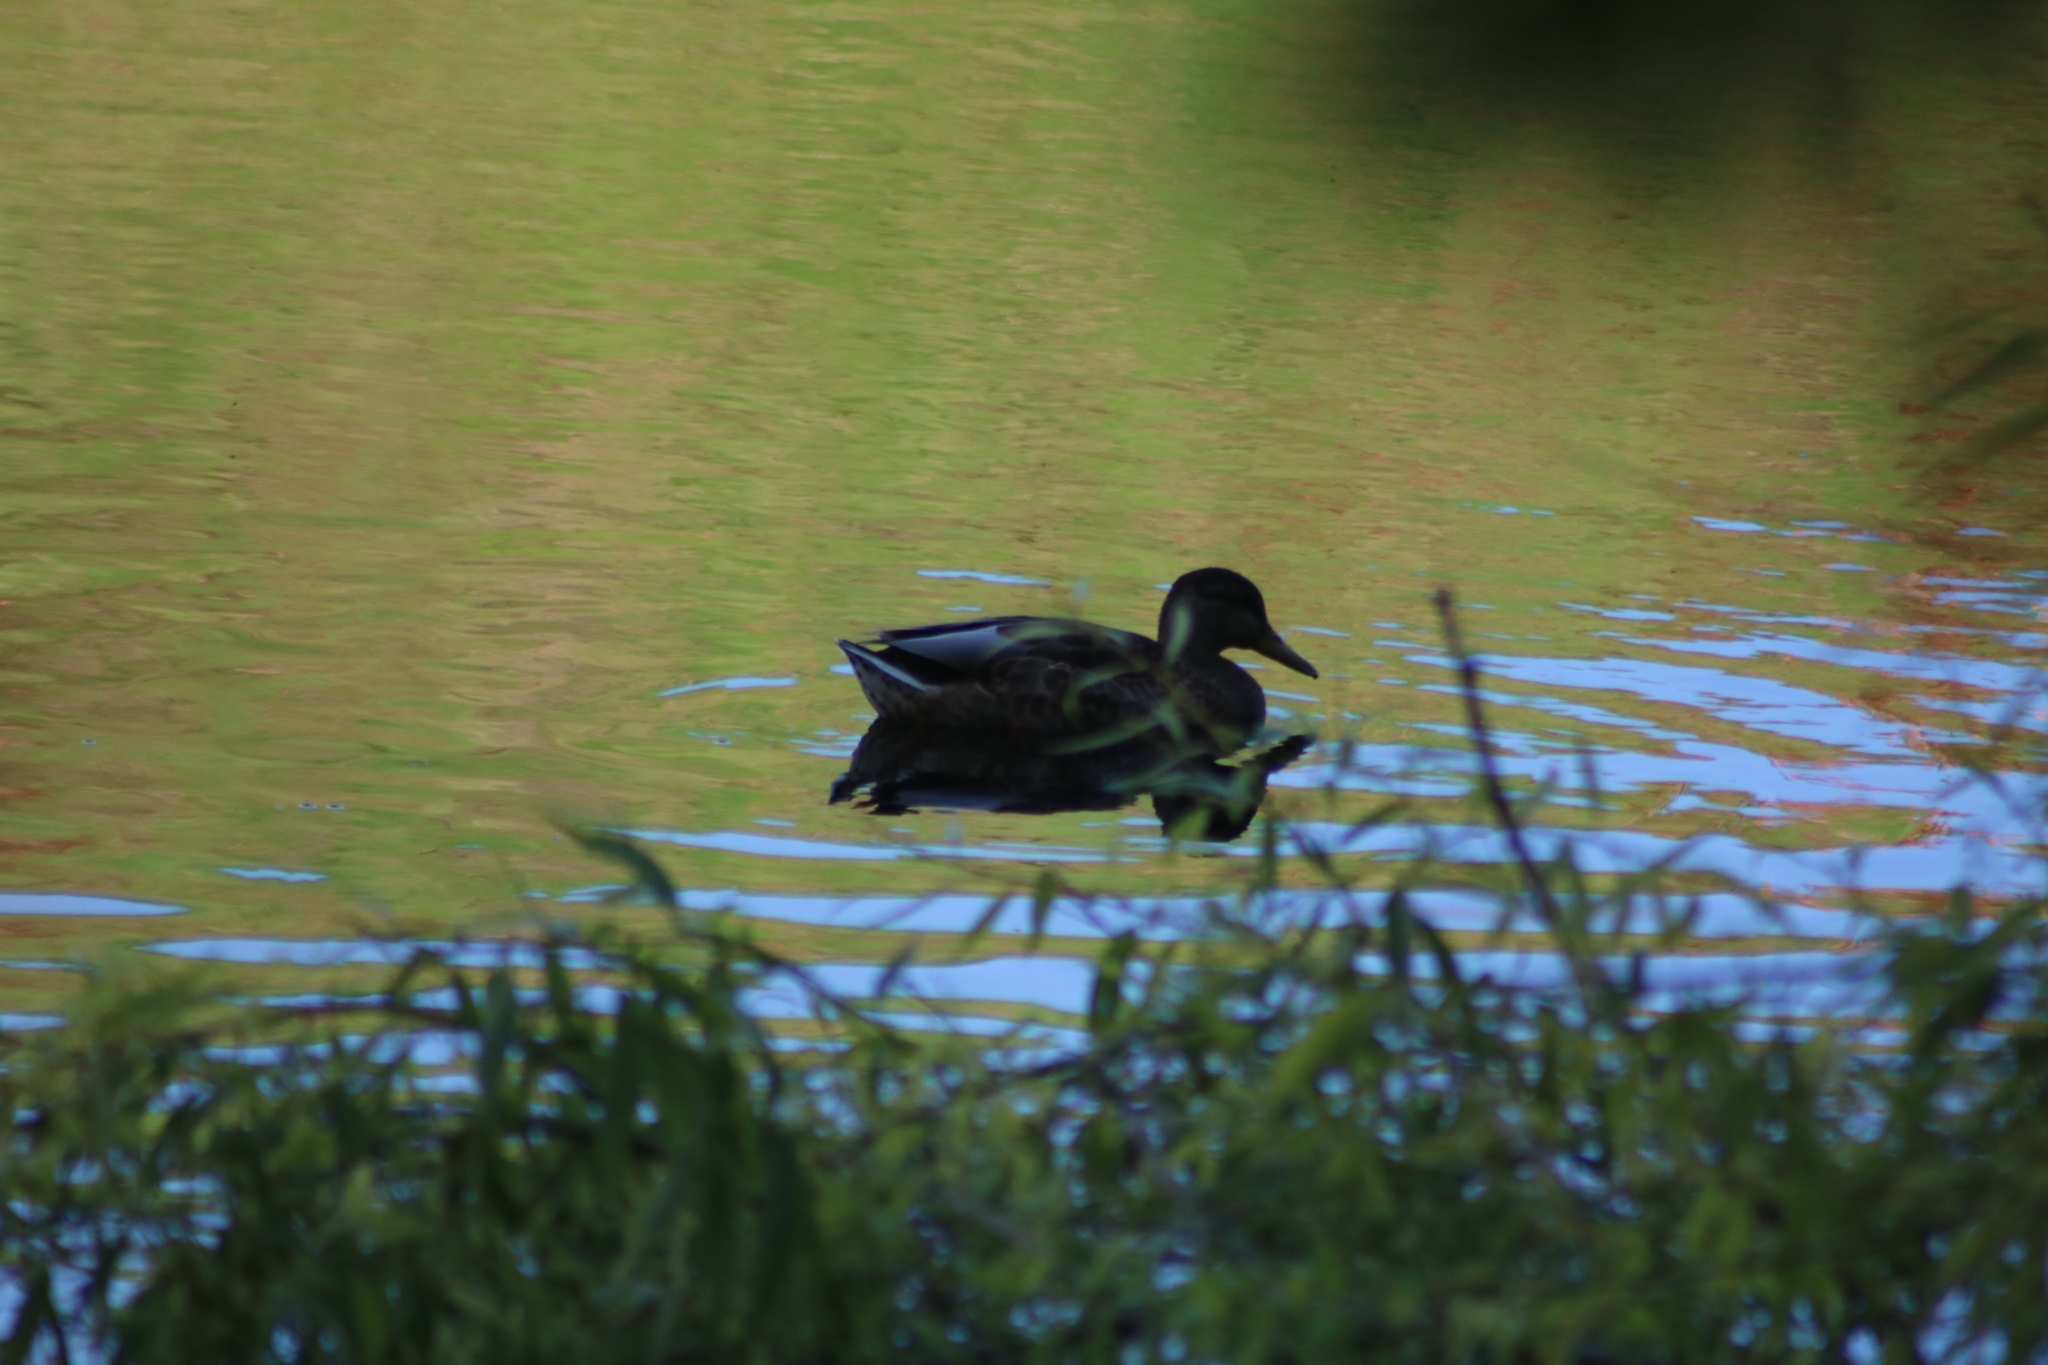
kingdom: Animalia
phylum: Chordata
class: Aves
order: Anseriformes
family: Anatidae
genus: Anas
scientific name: Anas platyrhynchos
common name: Mallard
